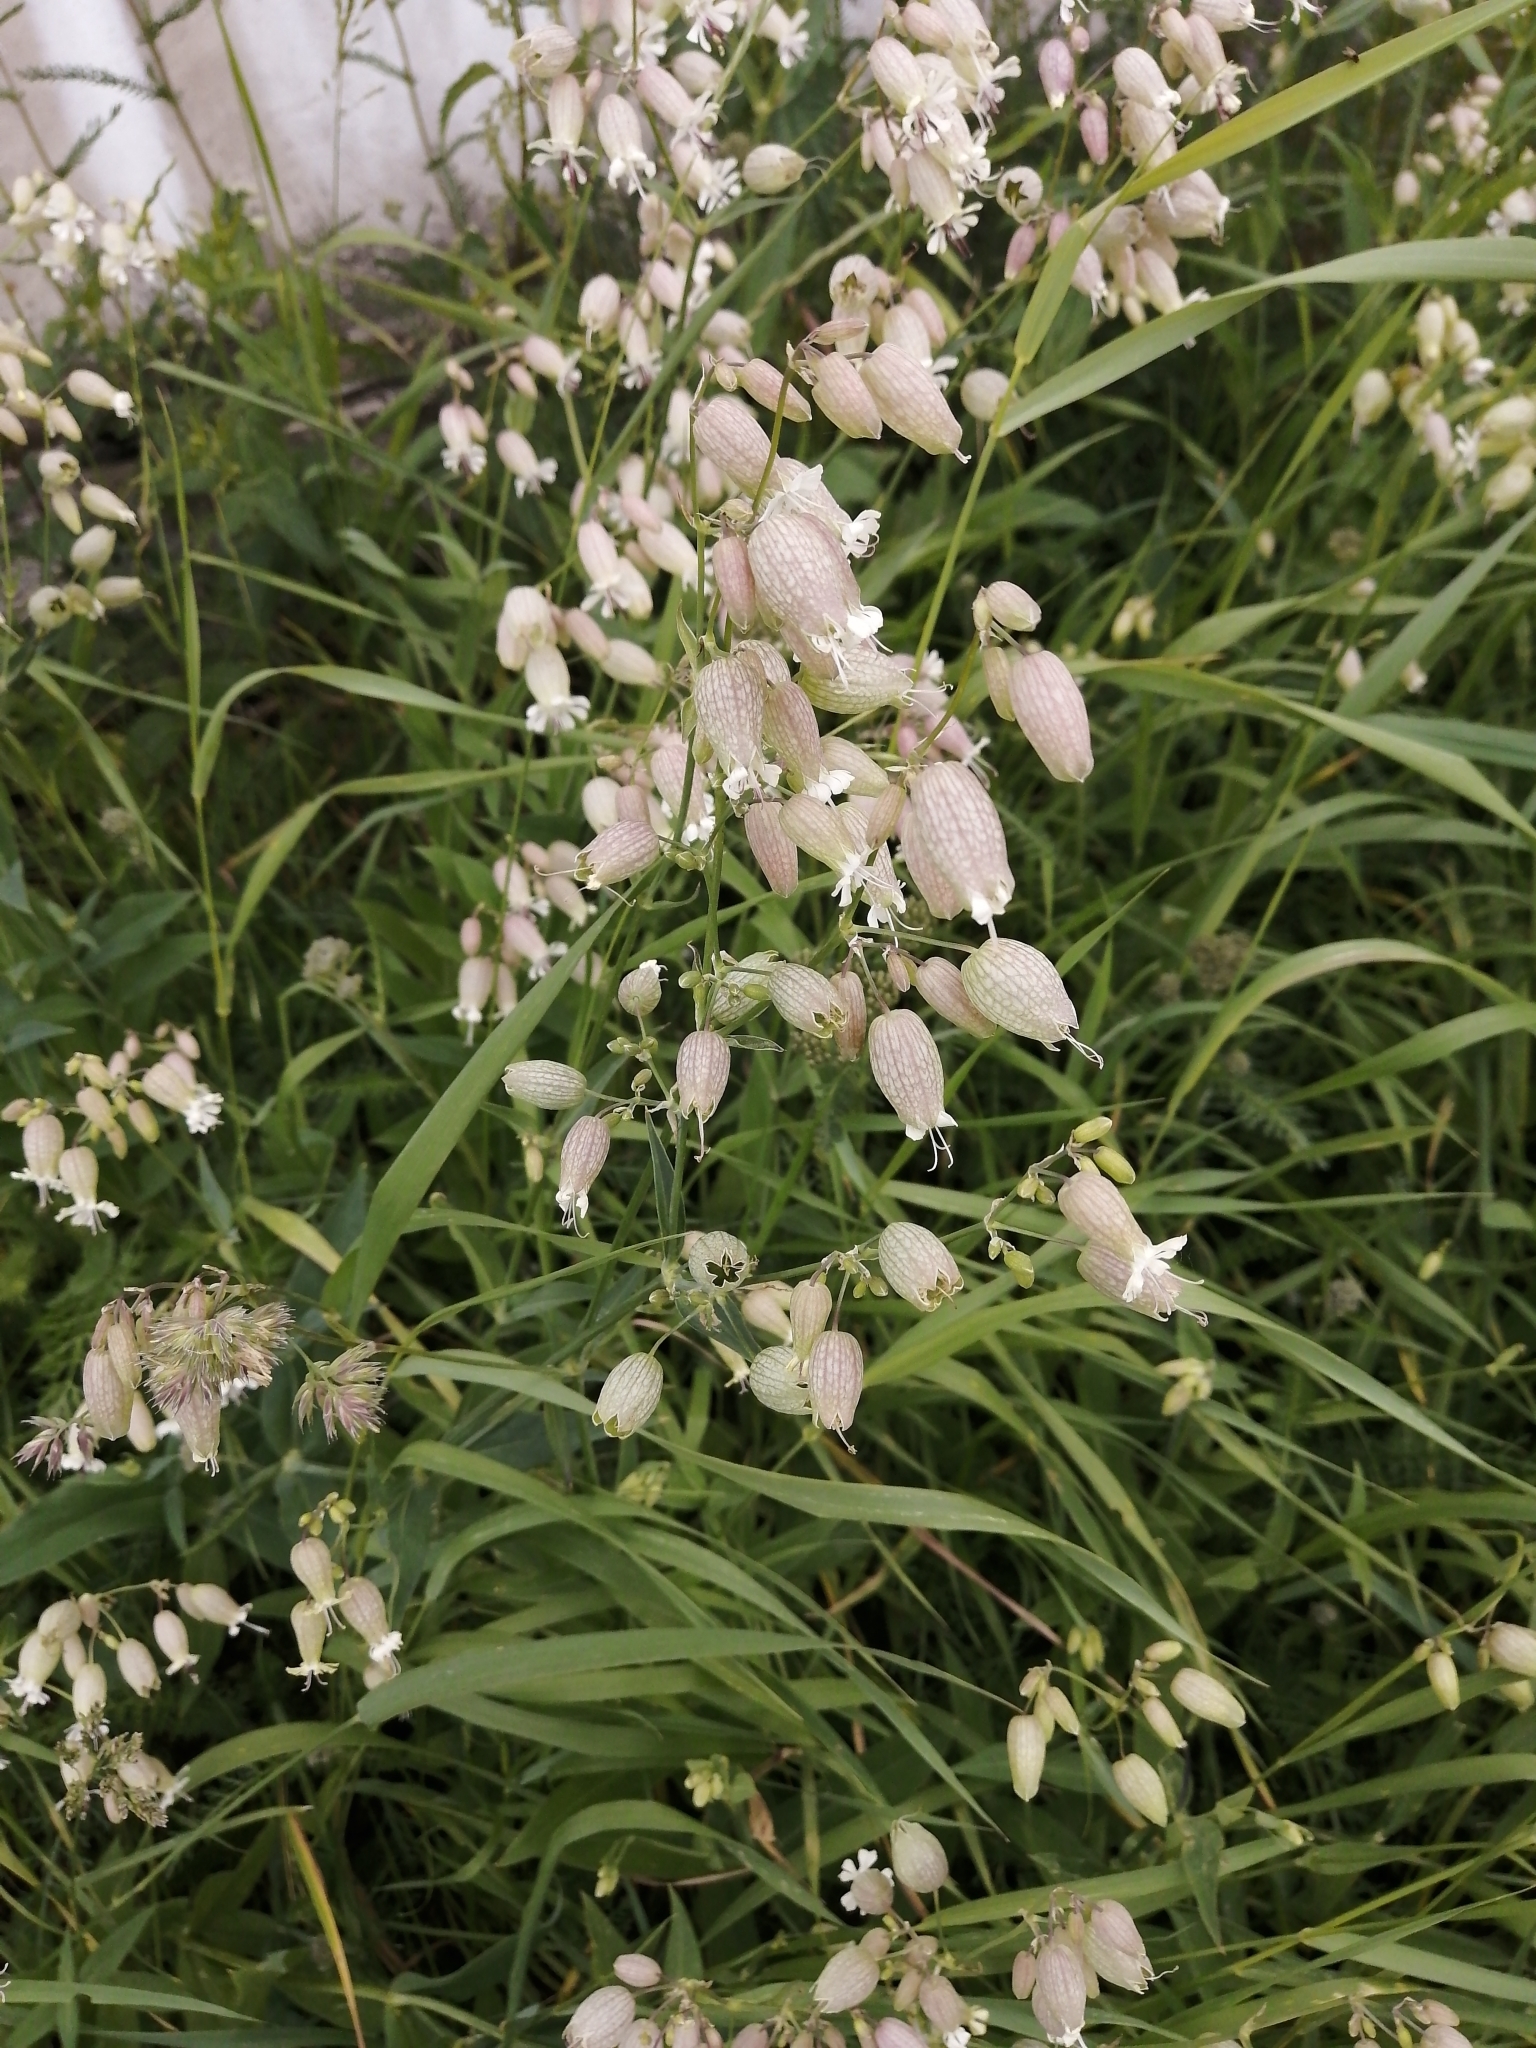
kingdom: Plantae
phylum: Tracheophyta
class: Magnoliopsida
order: Caryophyllales
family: Caryophyllaceae
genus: Silene
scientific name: Silene vulgaris
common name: Bladder campion
